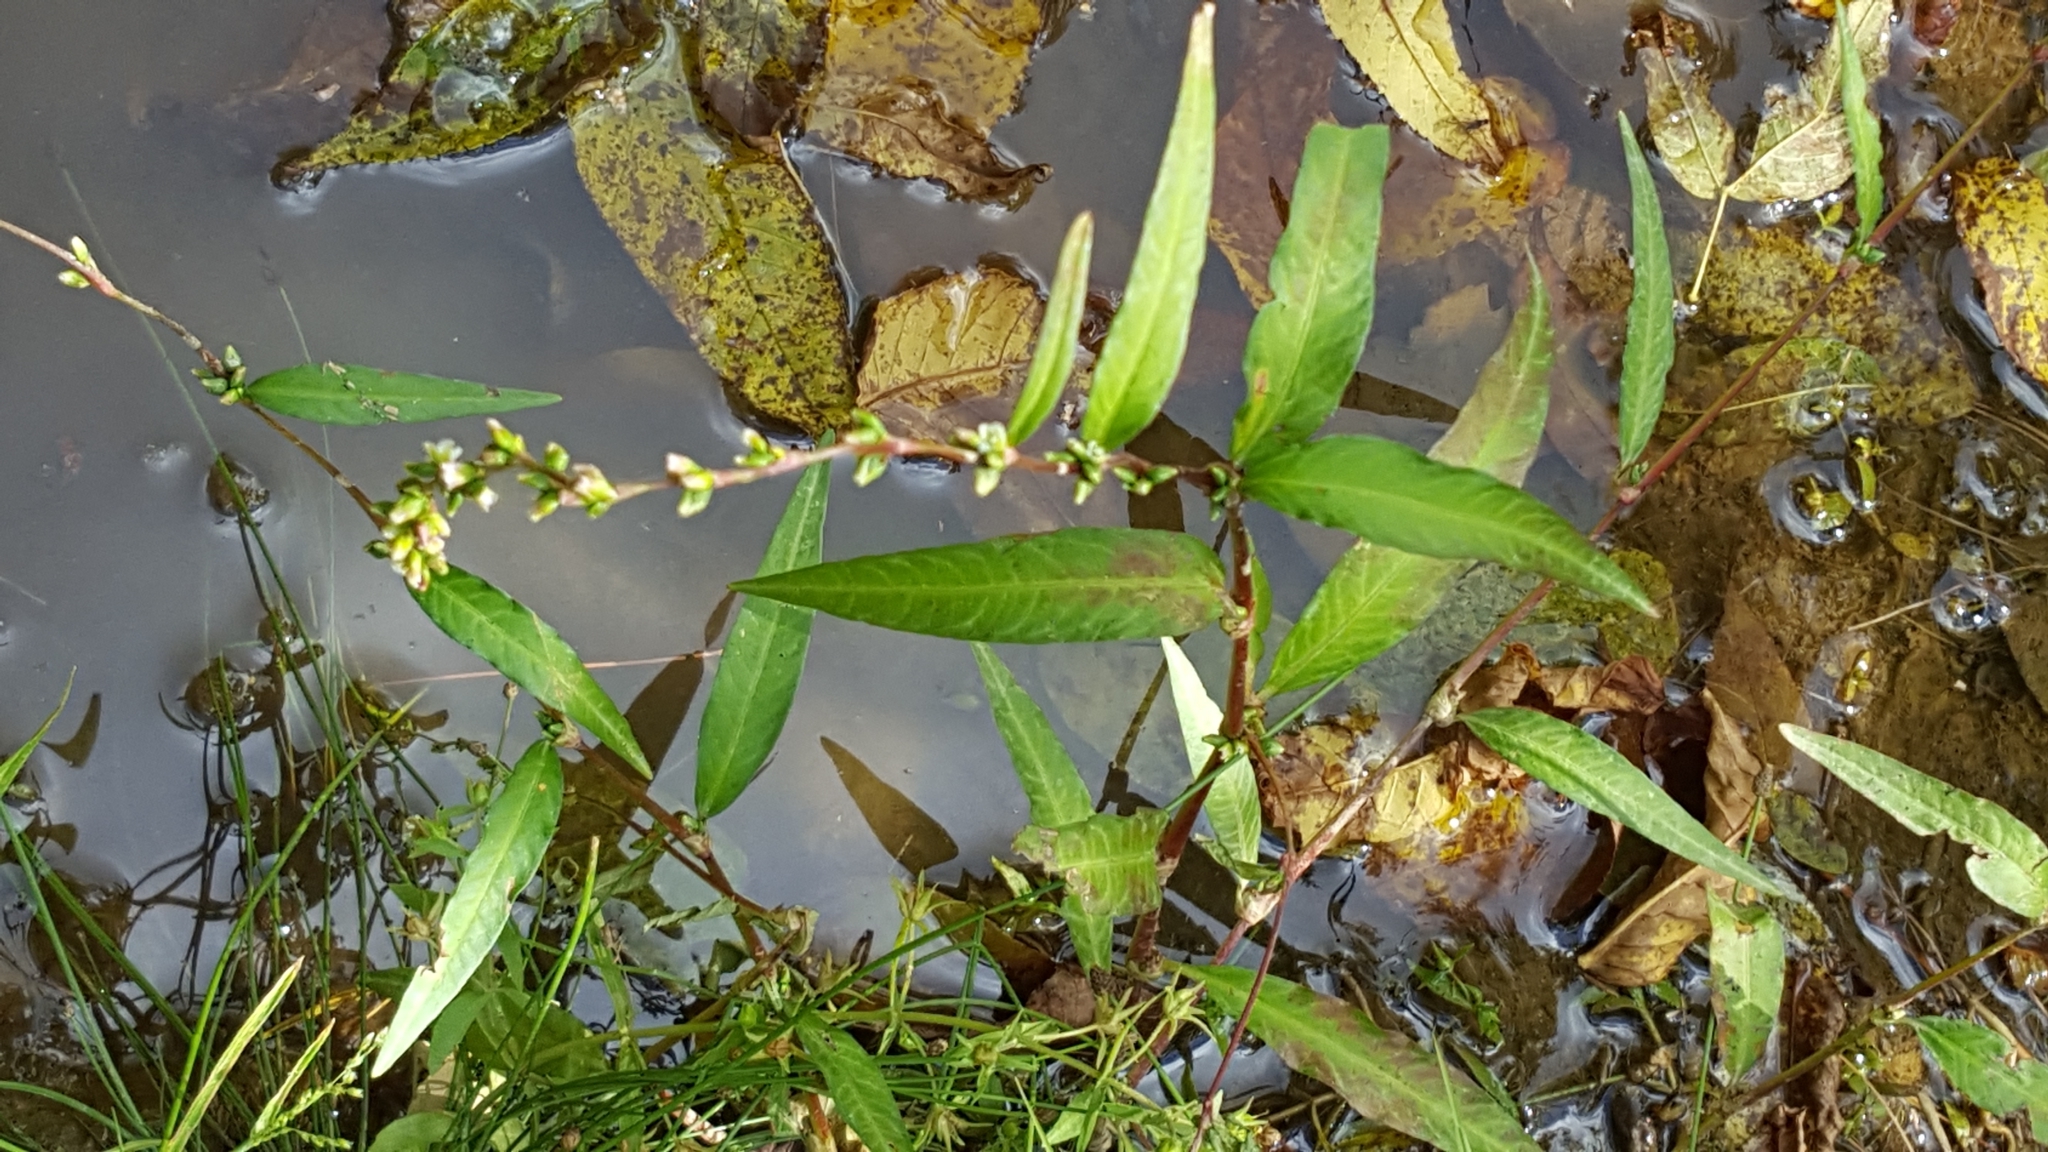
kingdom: Plantae
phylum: Tracheophyta
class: Magnoliopsida
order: Caryophyllales
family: Polygonaceae
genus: Persicaria
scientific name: Persicaria punctata
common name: Dotted smartweed
